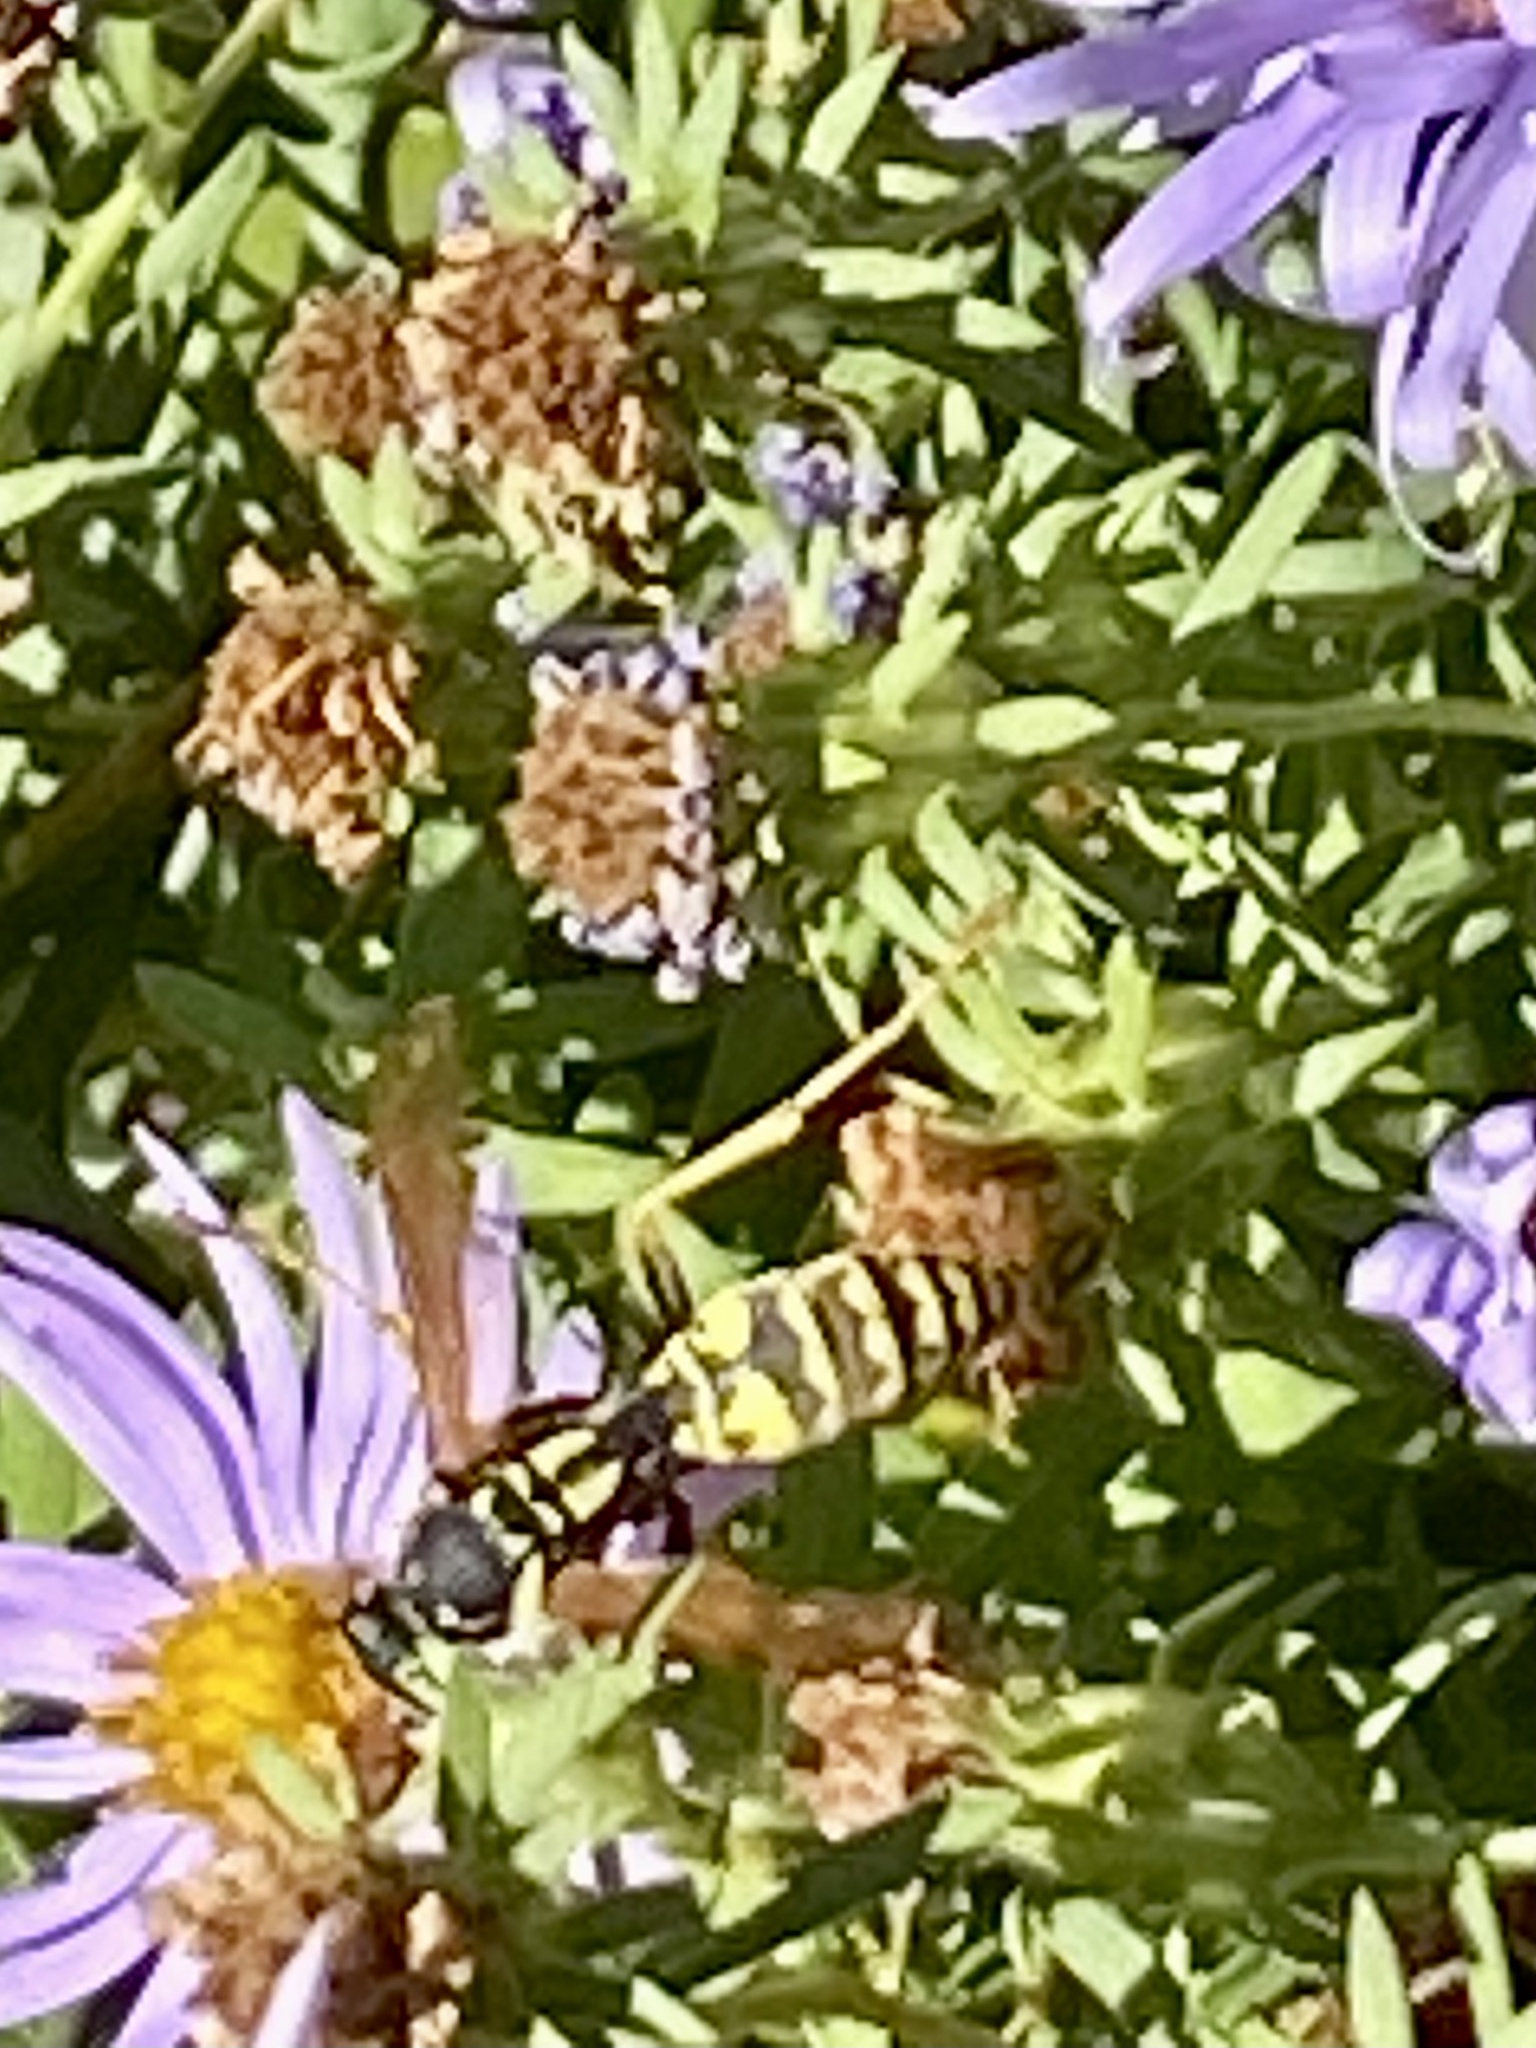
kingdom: Animalia
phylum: Arthropoda
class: Insecta
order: Hymenoptera
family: Eumenidae
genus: Polistes
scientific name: Polistes dominula
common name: Paper wasp
